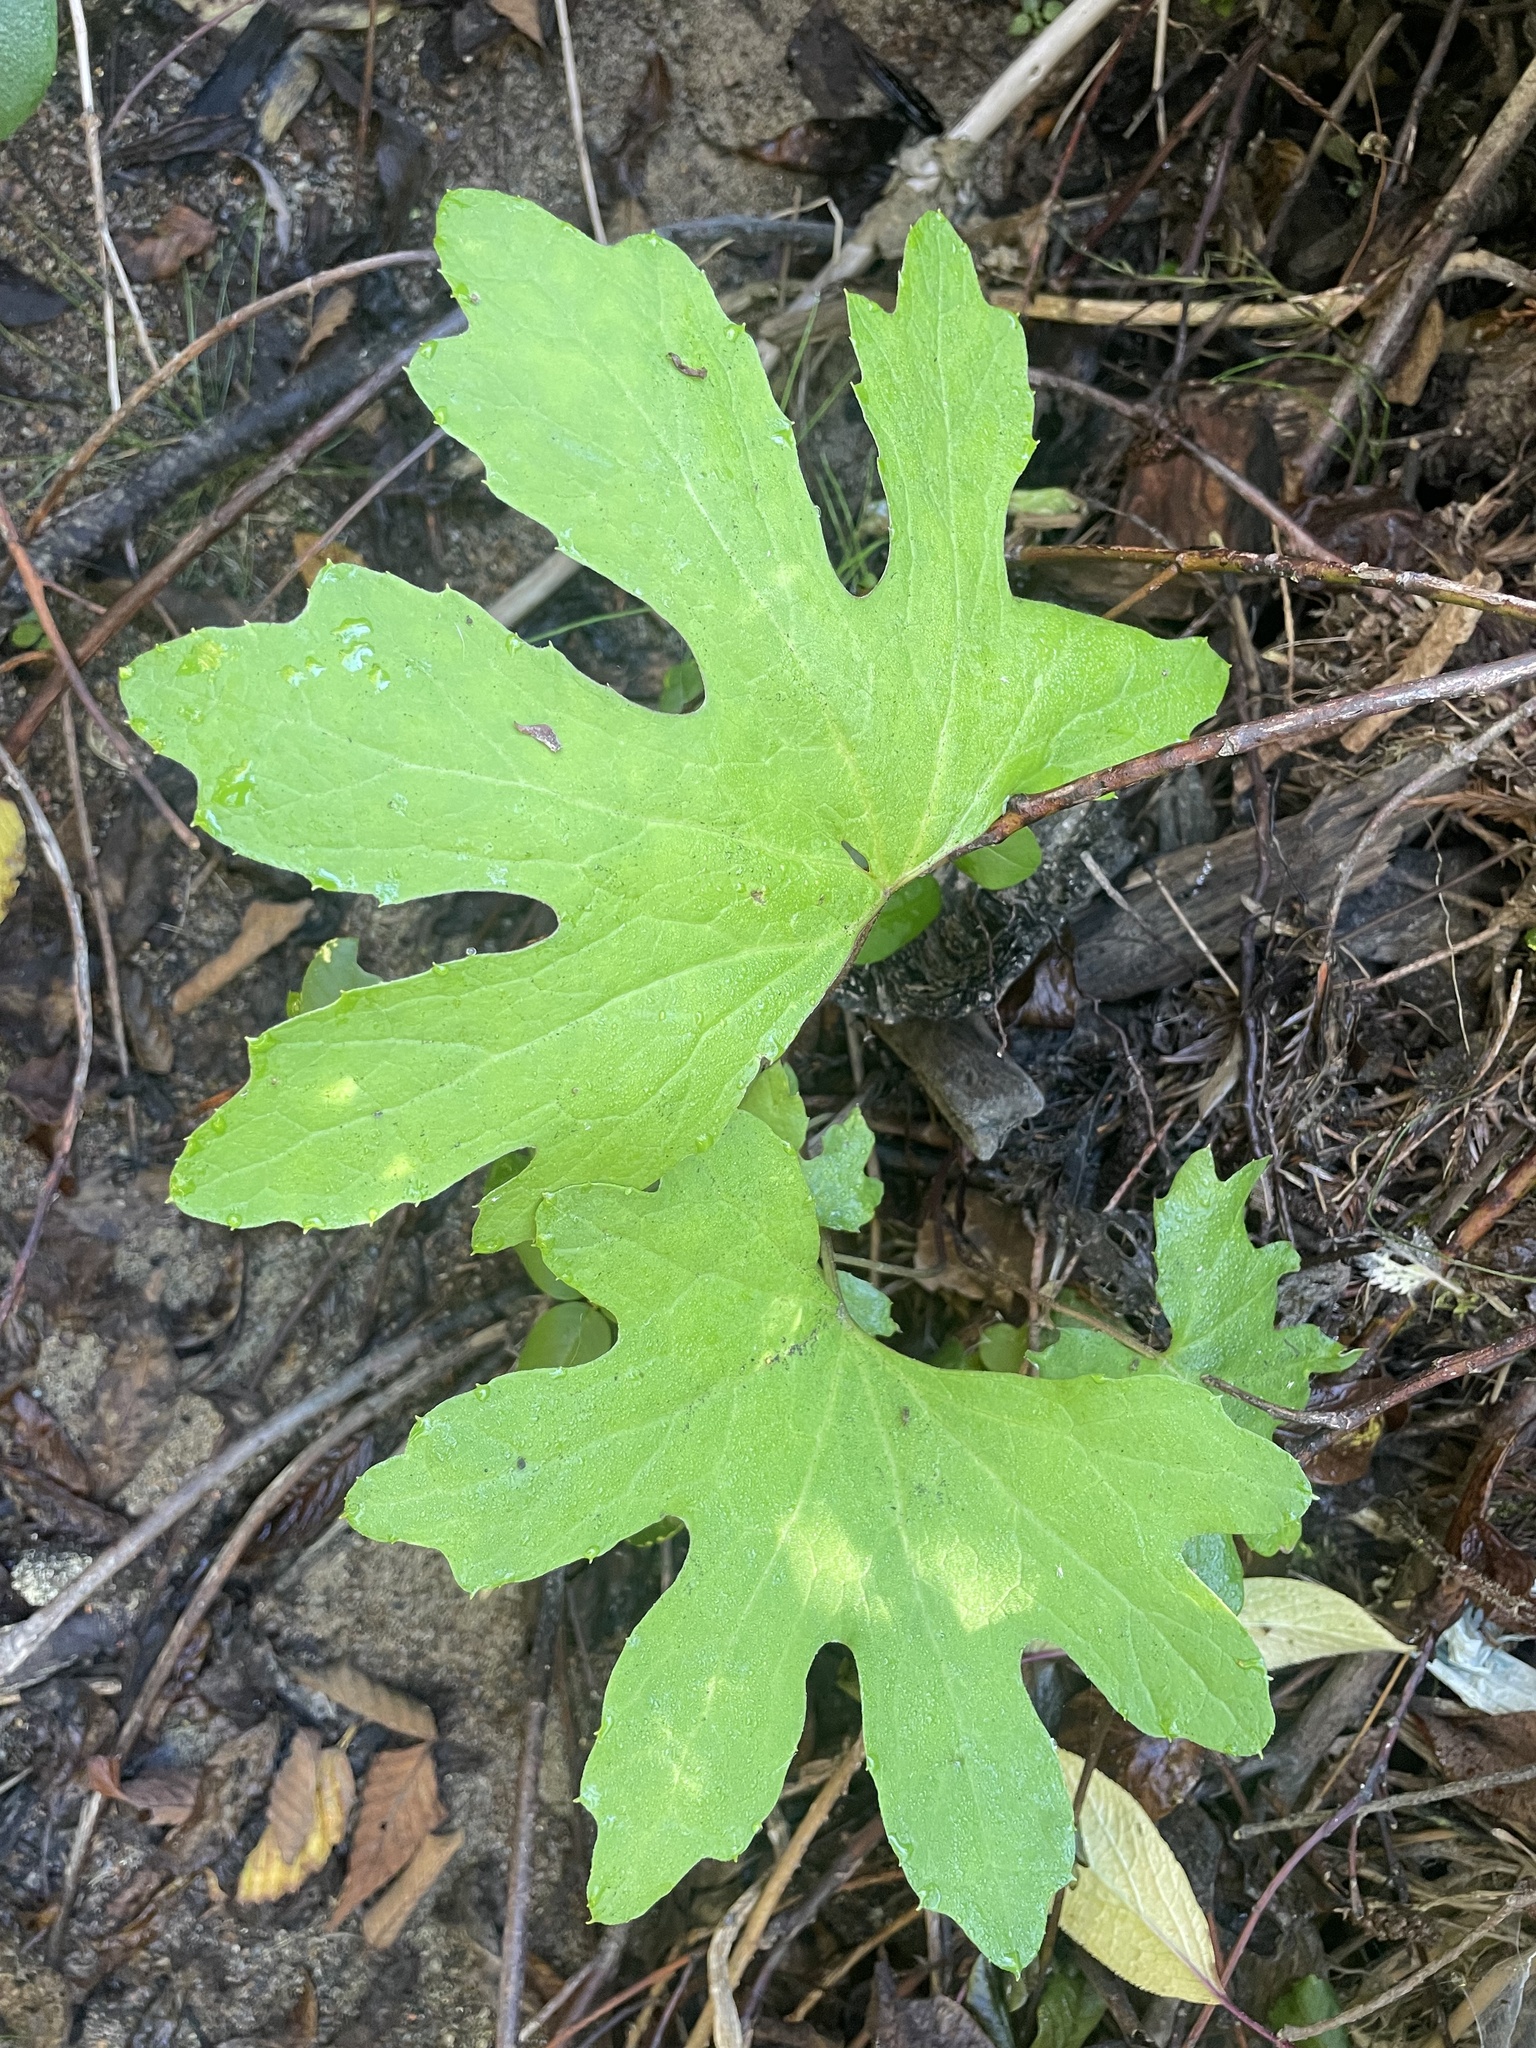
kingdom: Plantae
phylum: Tracheophyta
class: Magnoliopsida
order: Asterales
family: Asteraceae
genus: Petasites
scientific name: Petasites frigidus
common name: Arctic butterbur
